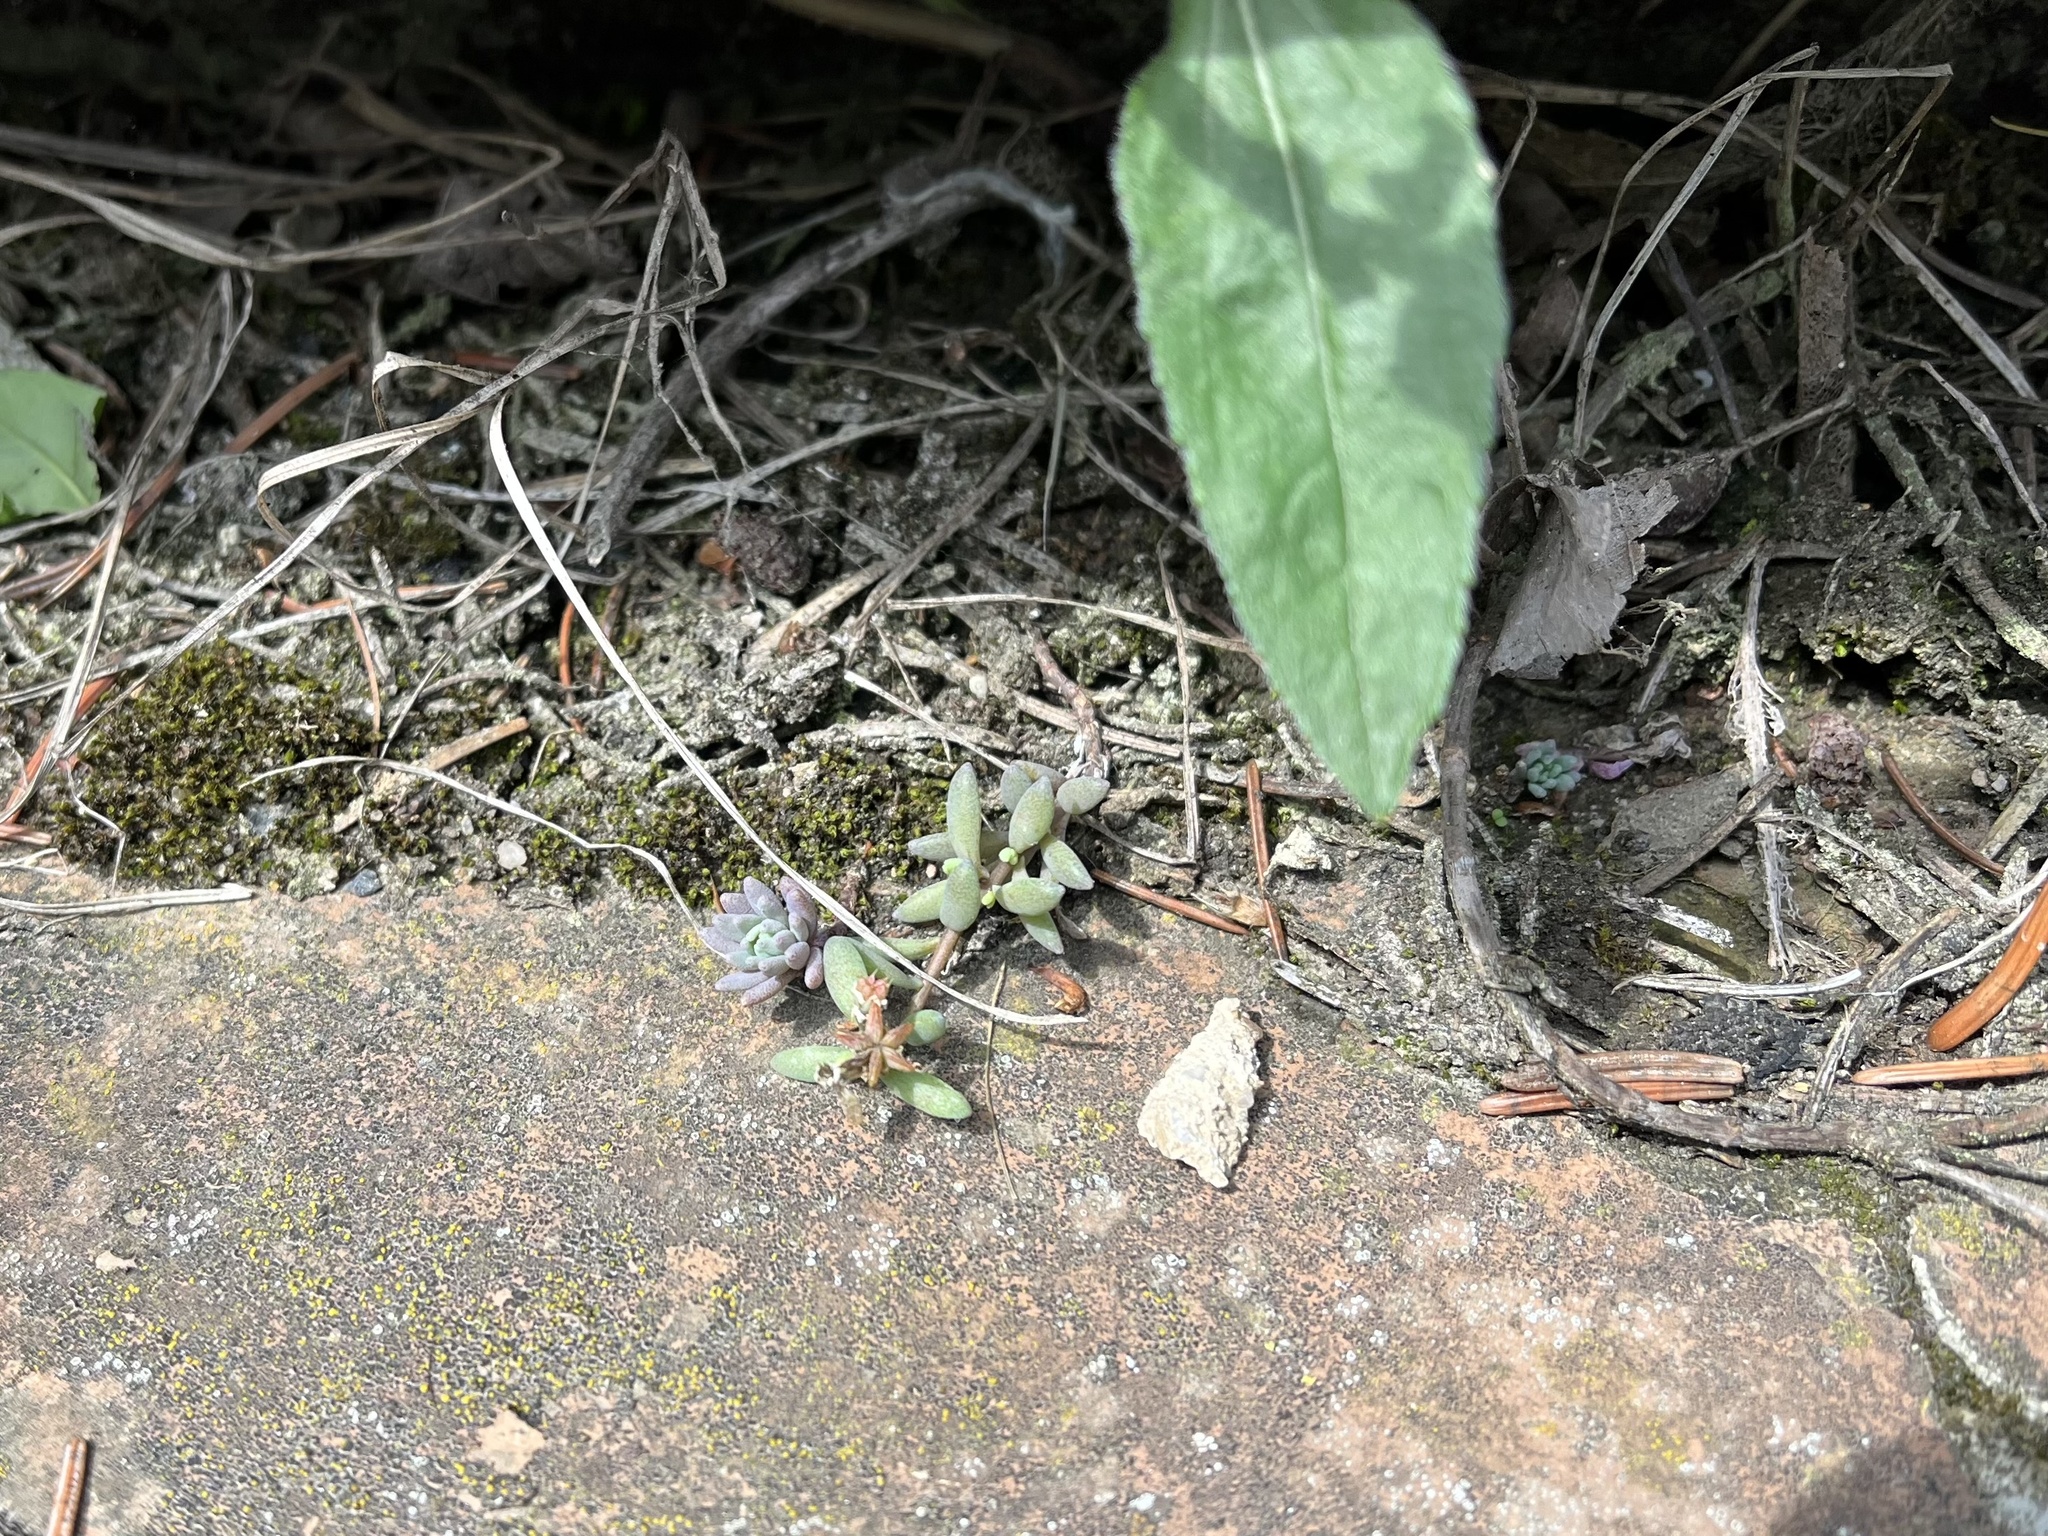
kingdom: Plantae
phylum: Tracheophyta
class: Magnoliopsida
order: Saxifragales
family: Crassulaceae
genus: Sedum
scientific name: Sedum hispanicum
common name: Spanish stonecrop
